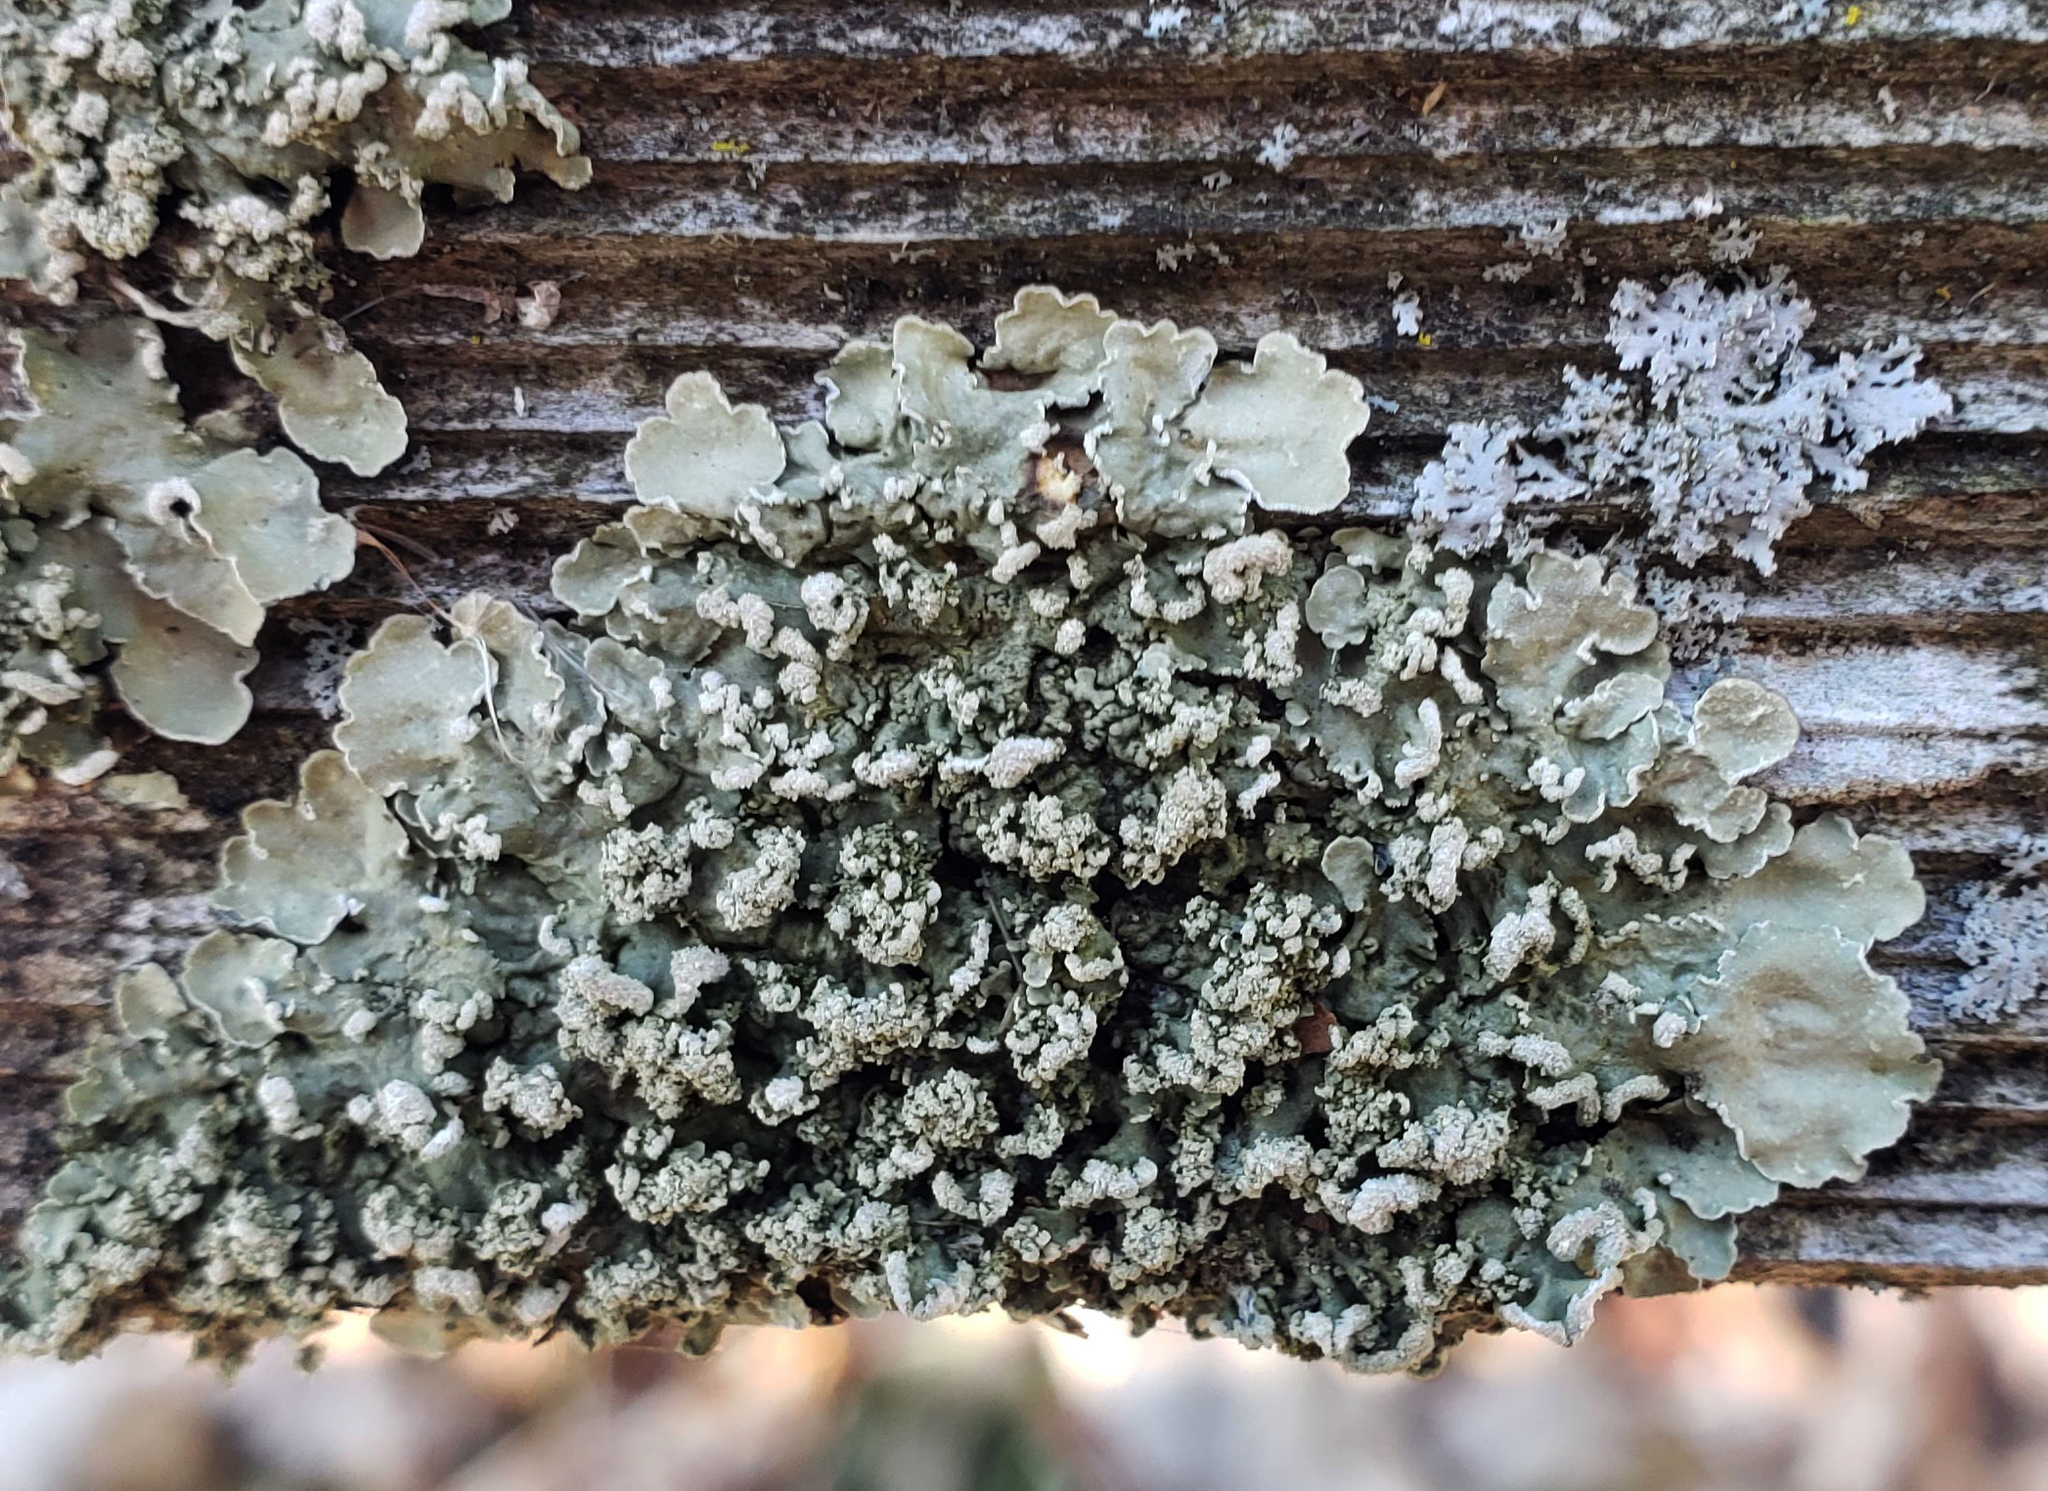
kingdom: Fungi
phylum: Ascomycota
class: Lecanoromycetes
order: Lecanorales
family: Parmeliaceae
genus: Flavopunctelia
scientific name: Flavopunctelia soredica
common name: Powder-edged speckled greenshield
